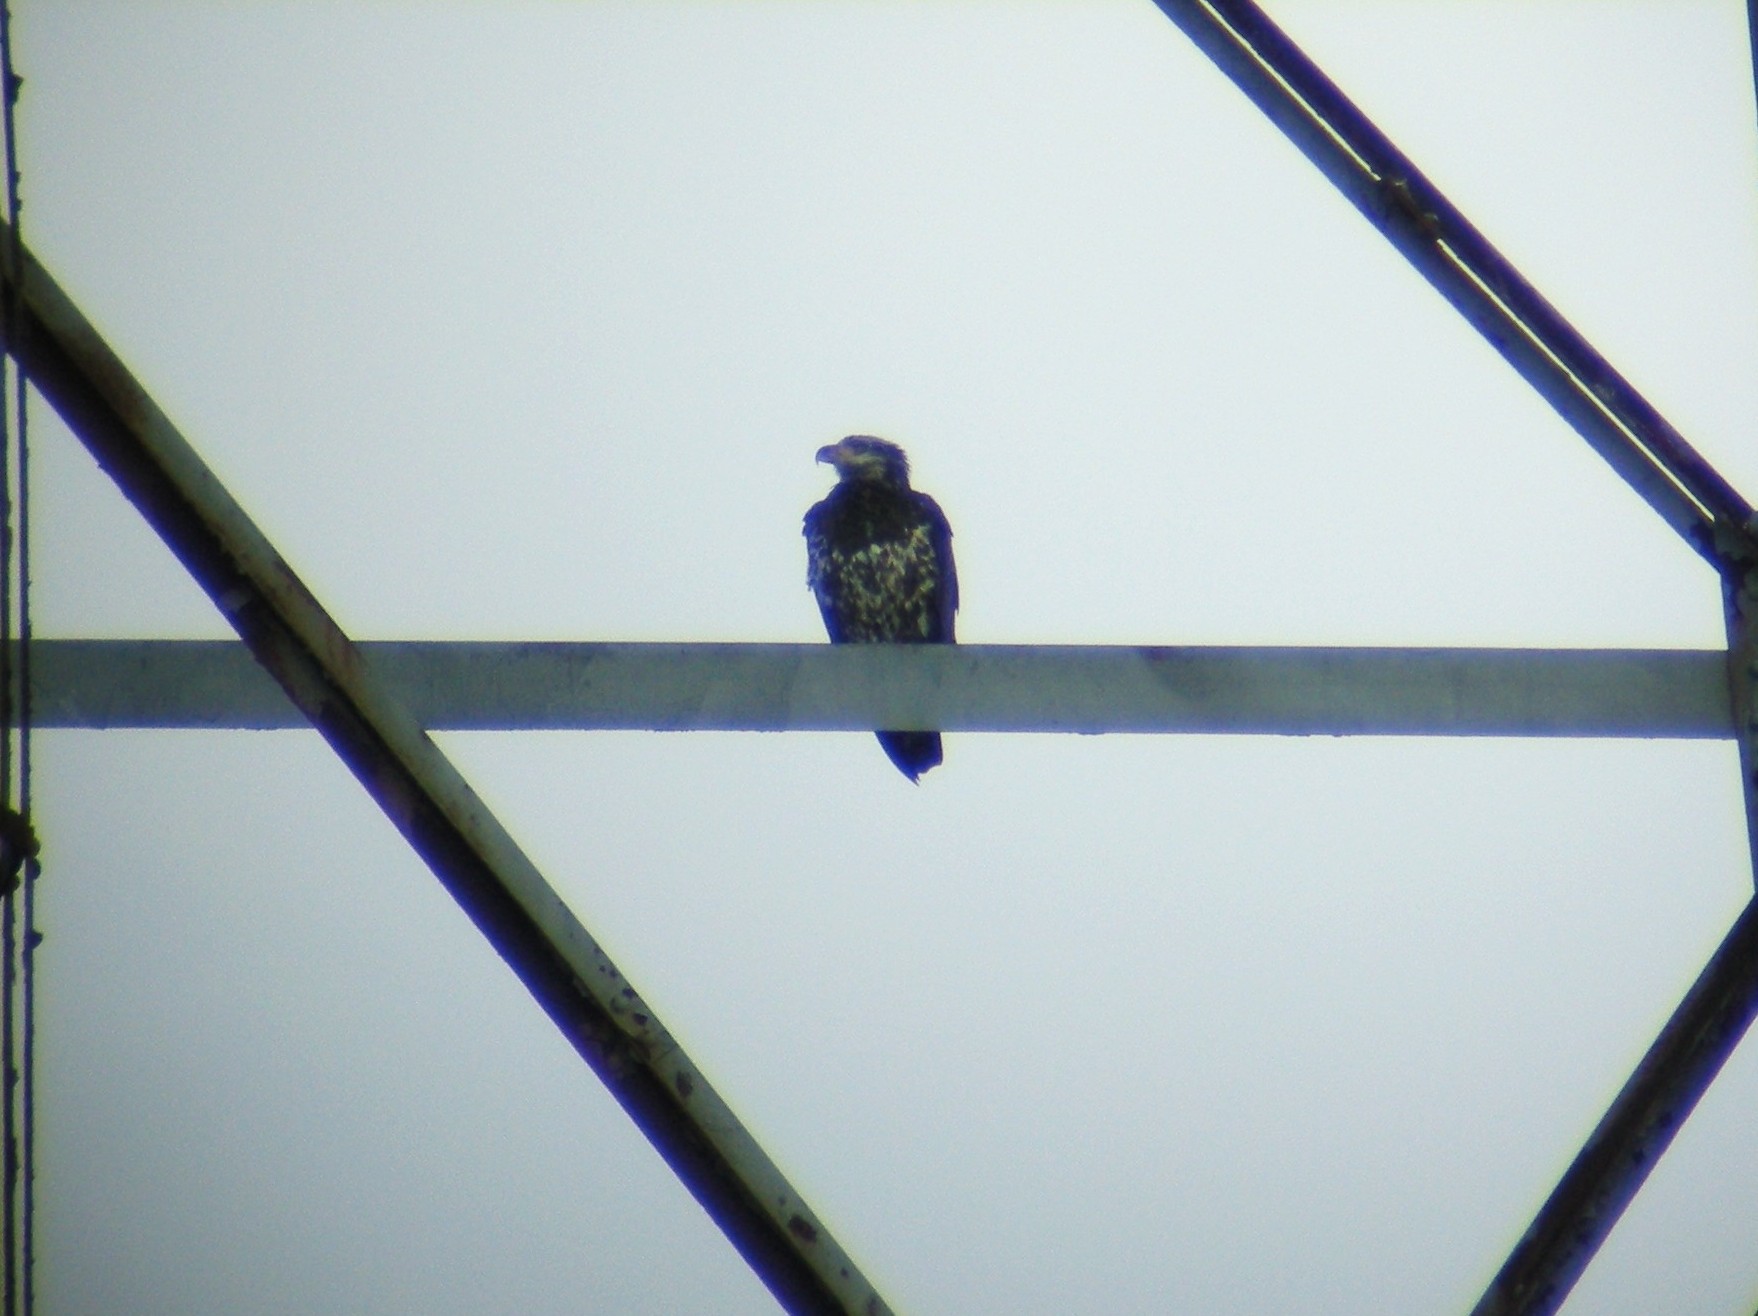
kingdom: Animalia
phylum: Chordata
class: Aves
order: Accipitriformes
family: Accipitridae
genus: Haliaeetus
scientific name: Haliaeetus leucocephalus
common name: Bald eagle
